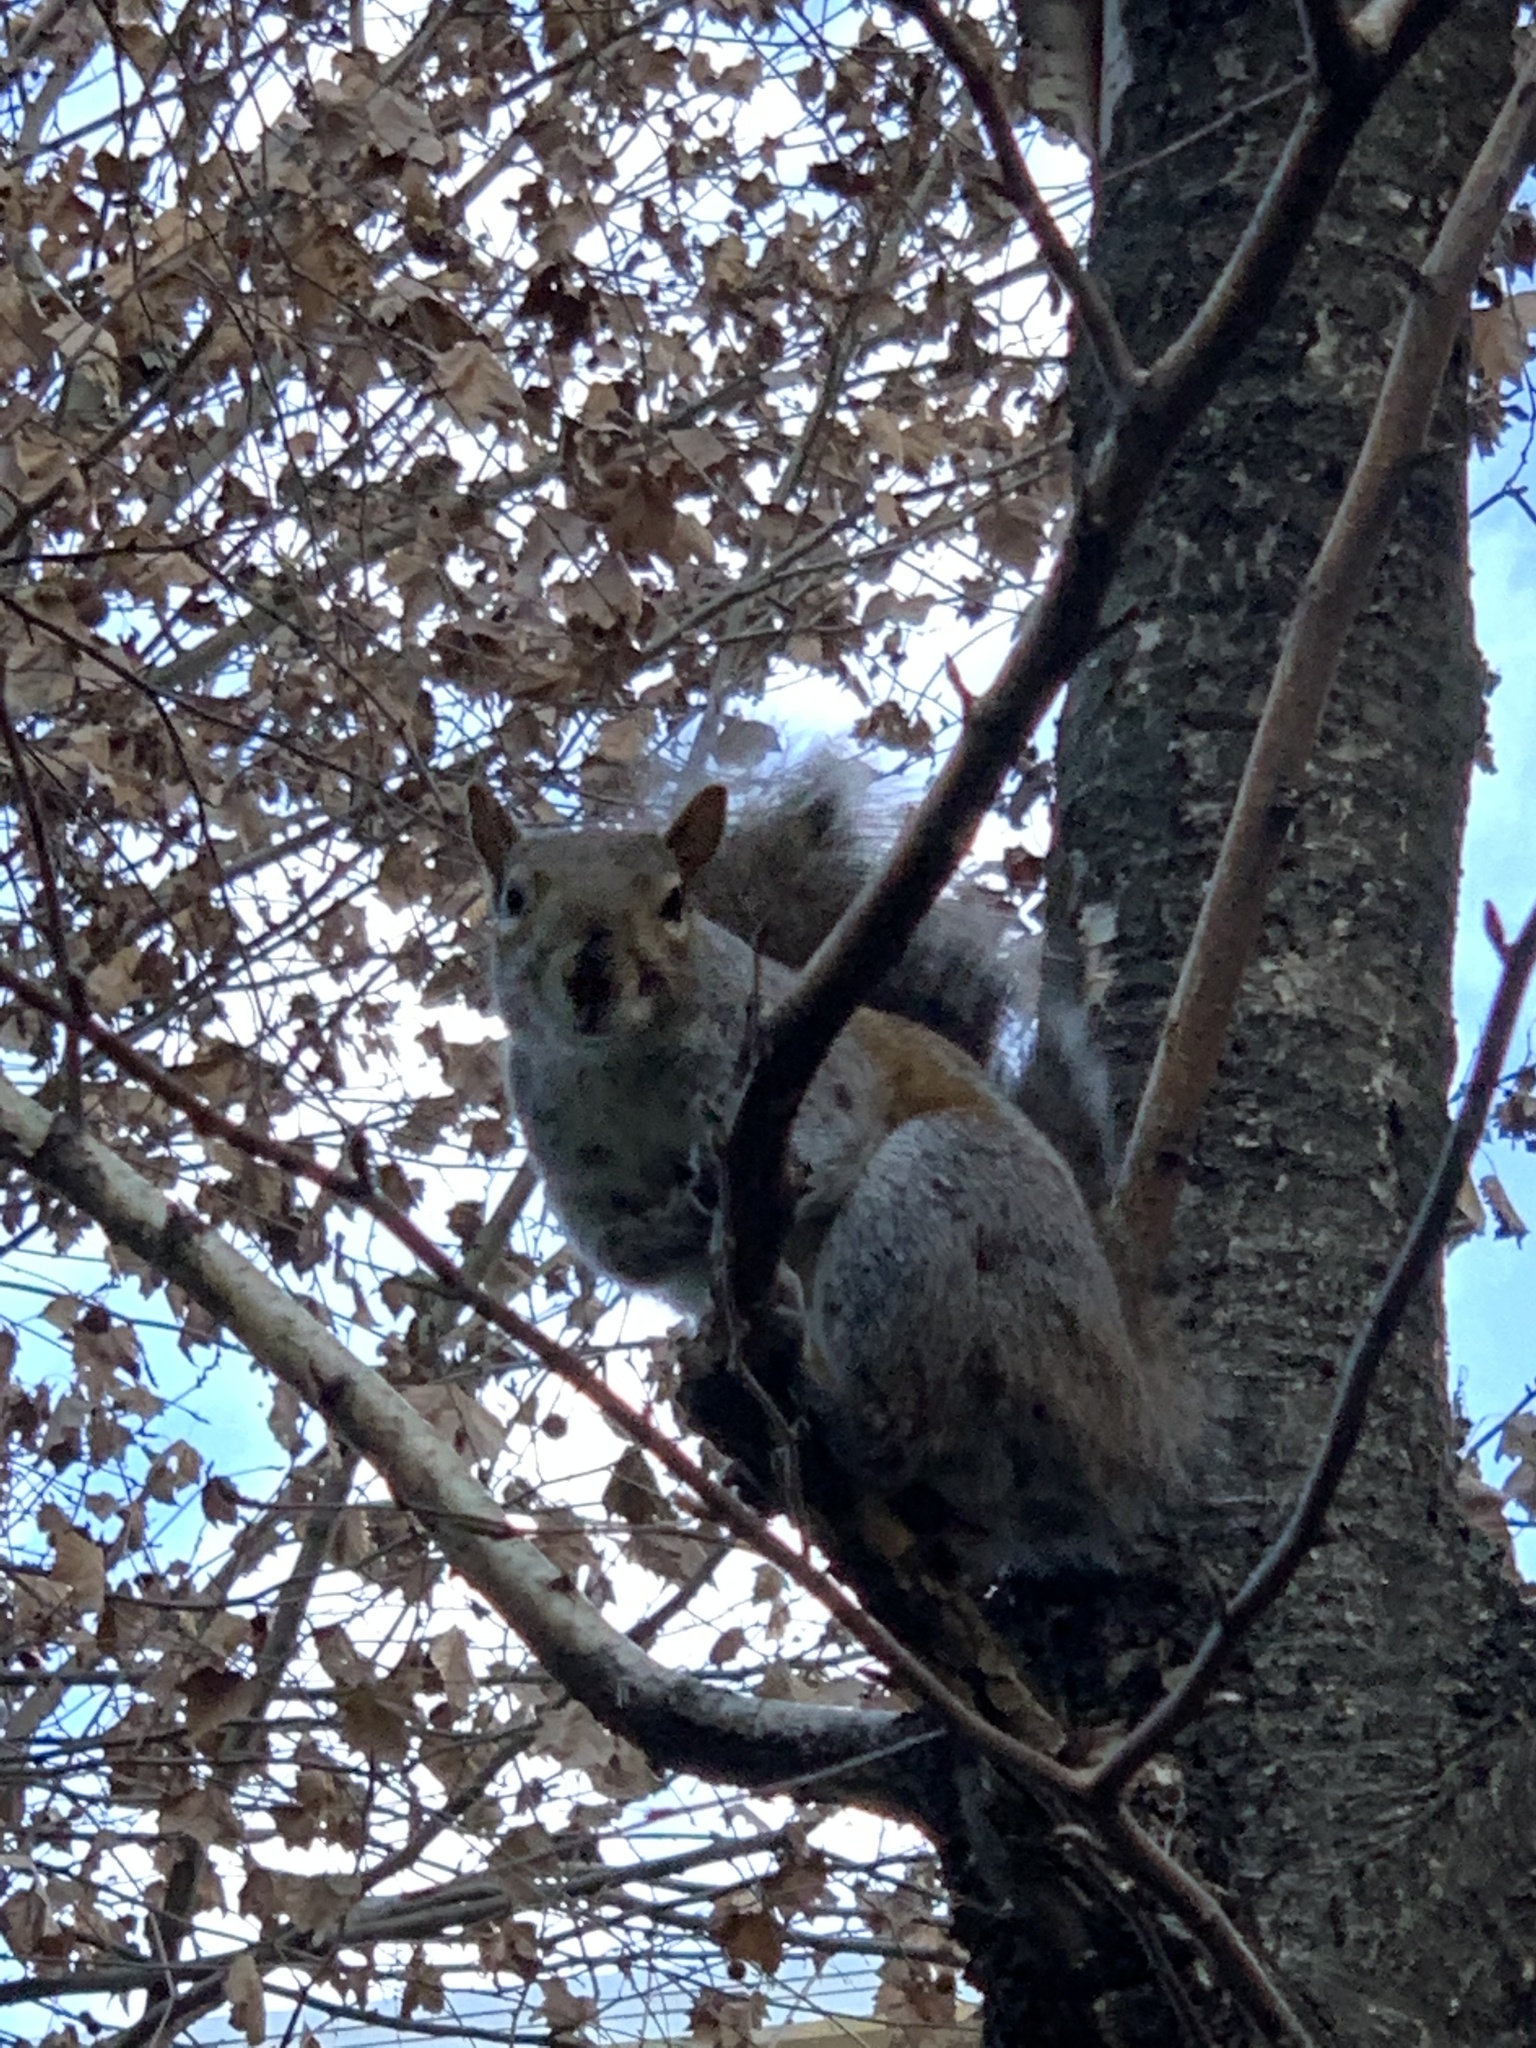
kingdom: Animalia
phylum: Chordata
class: Mammalia
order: Rodentia
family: Sciuridae
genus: Sciurus
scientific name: Sciurus carolinensis
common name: Eastern gray squirrel
